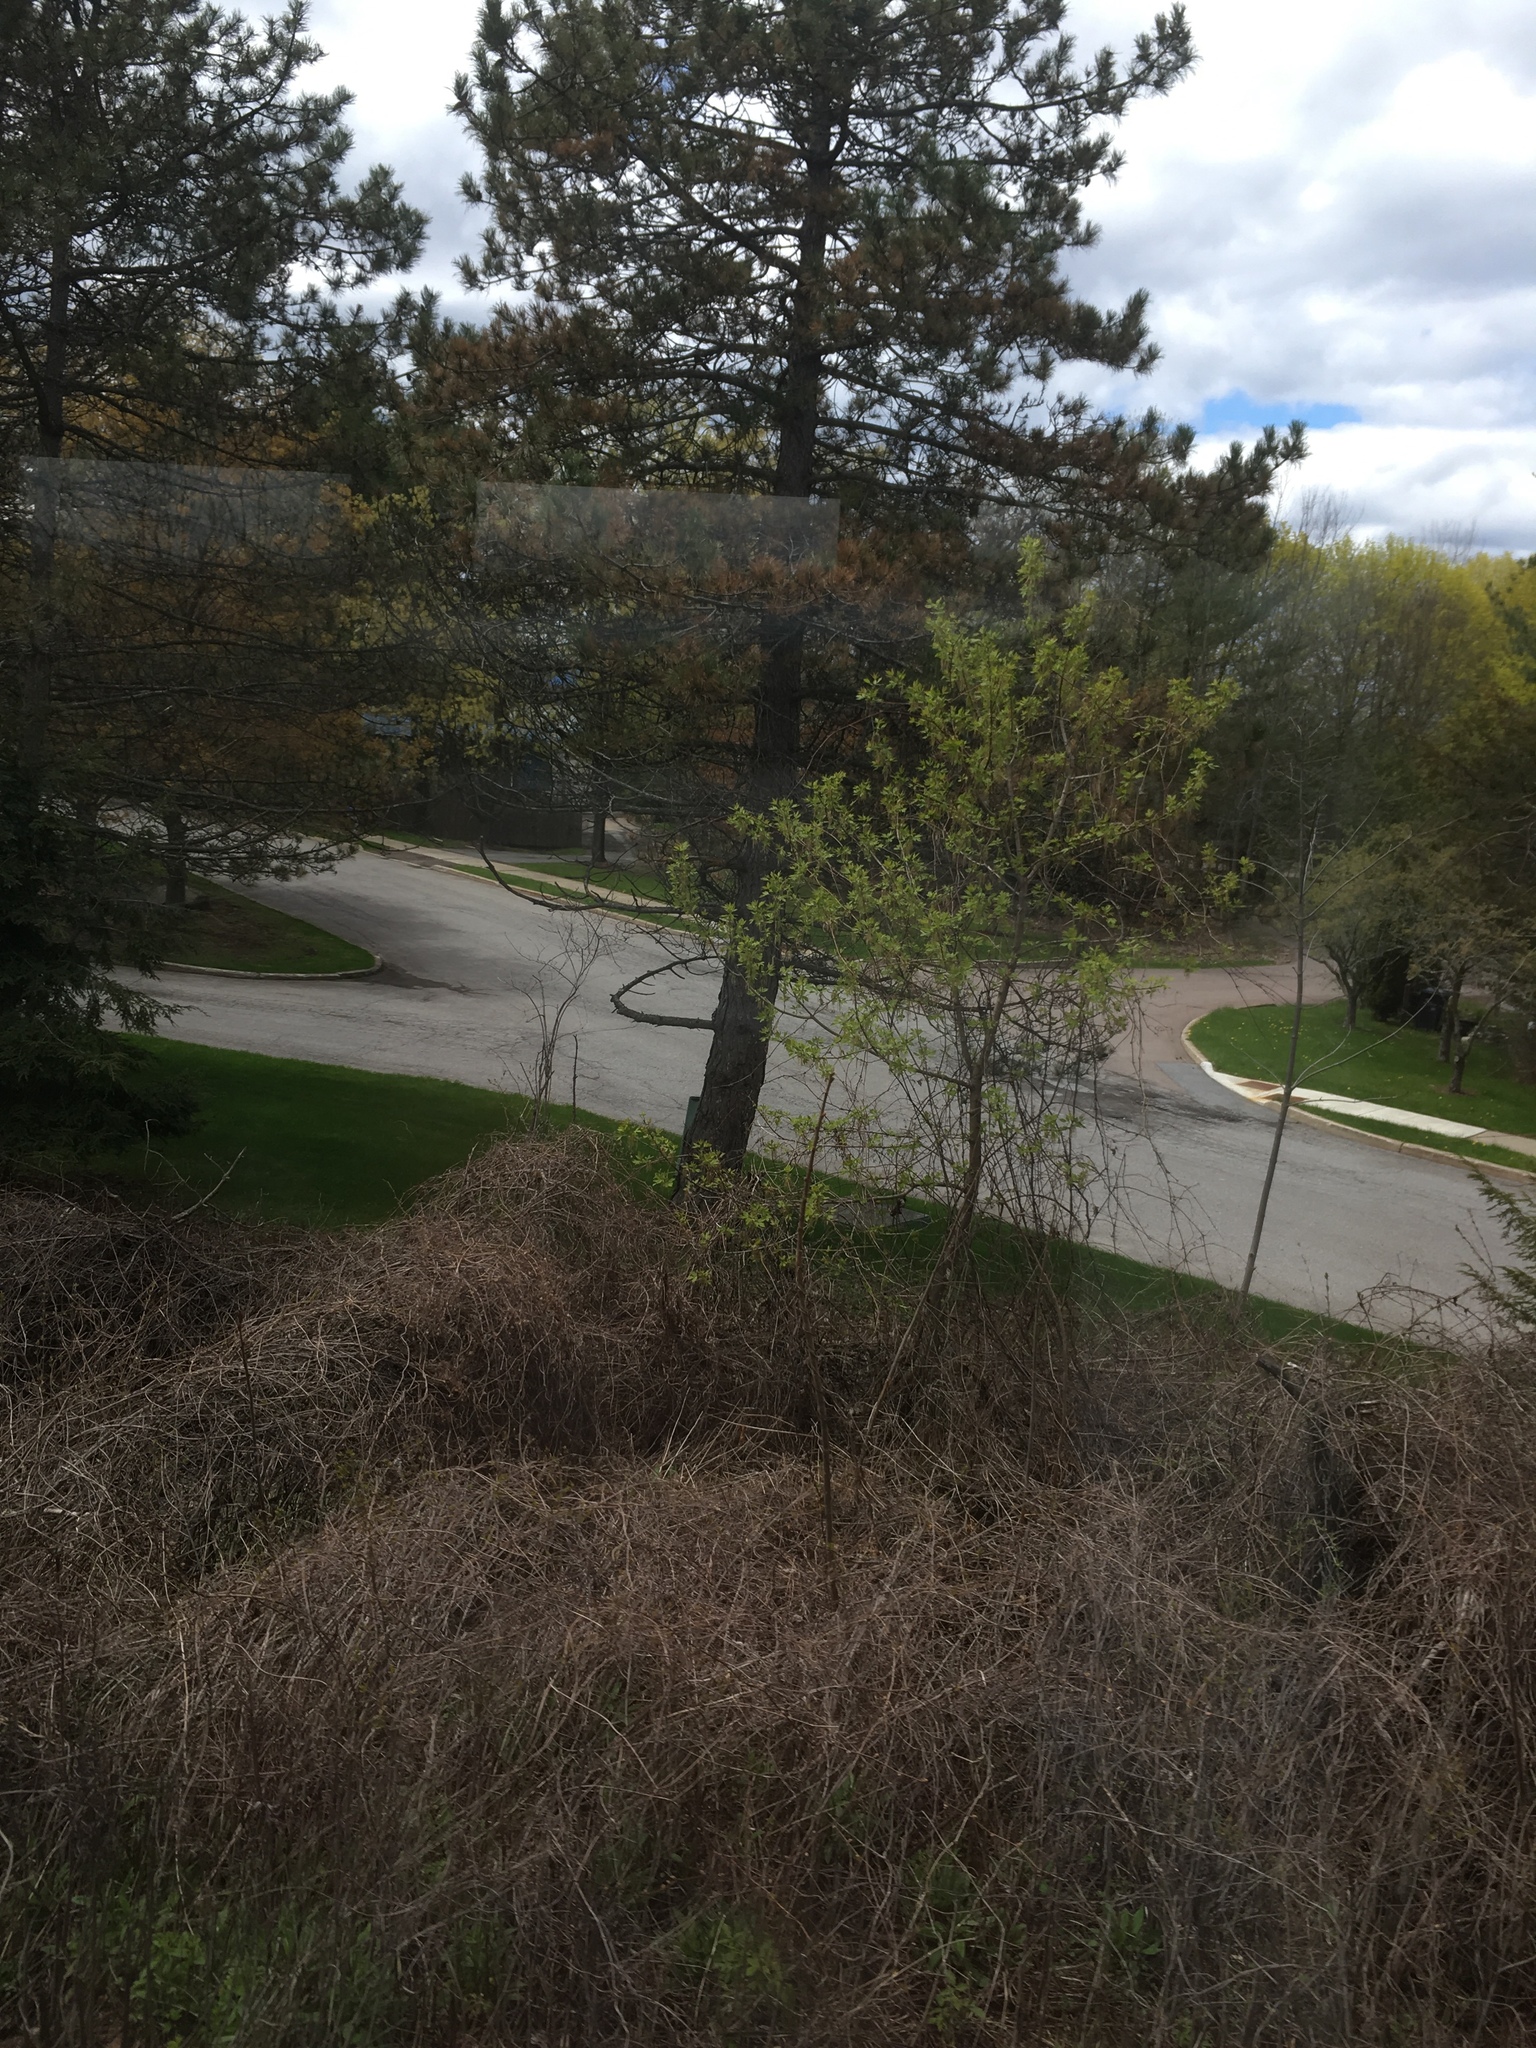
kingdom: Plantae
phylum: Tracheophyta
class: Magnoliopsida
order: Sapindales
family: Sapindaceae
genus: Acer
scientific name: Acer negundo
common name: Ashleaf maple
